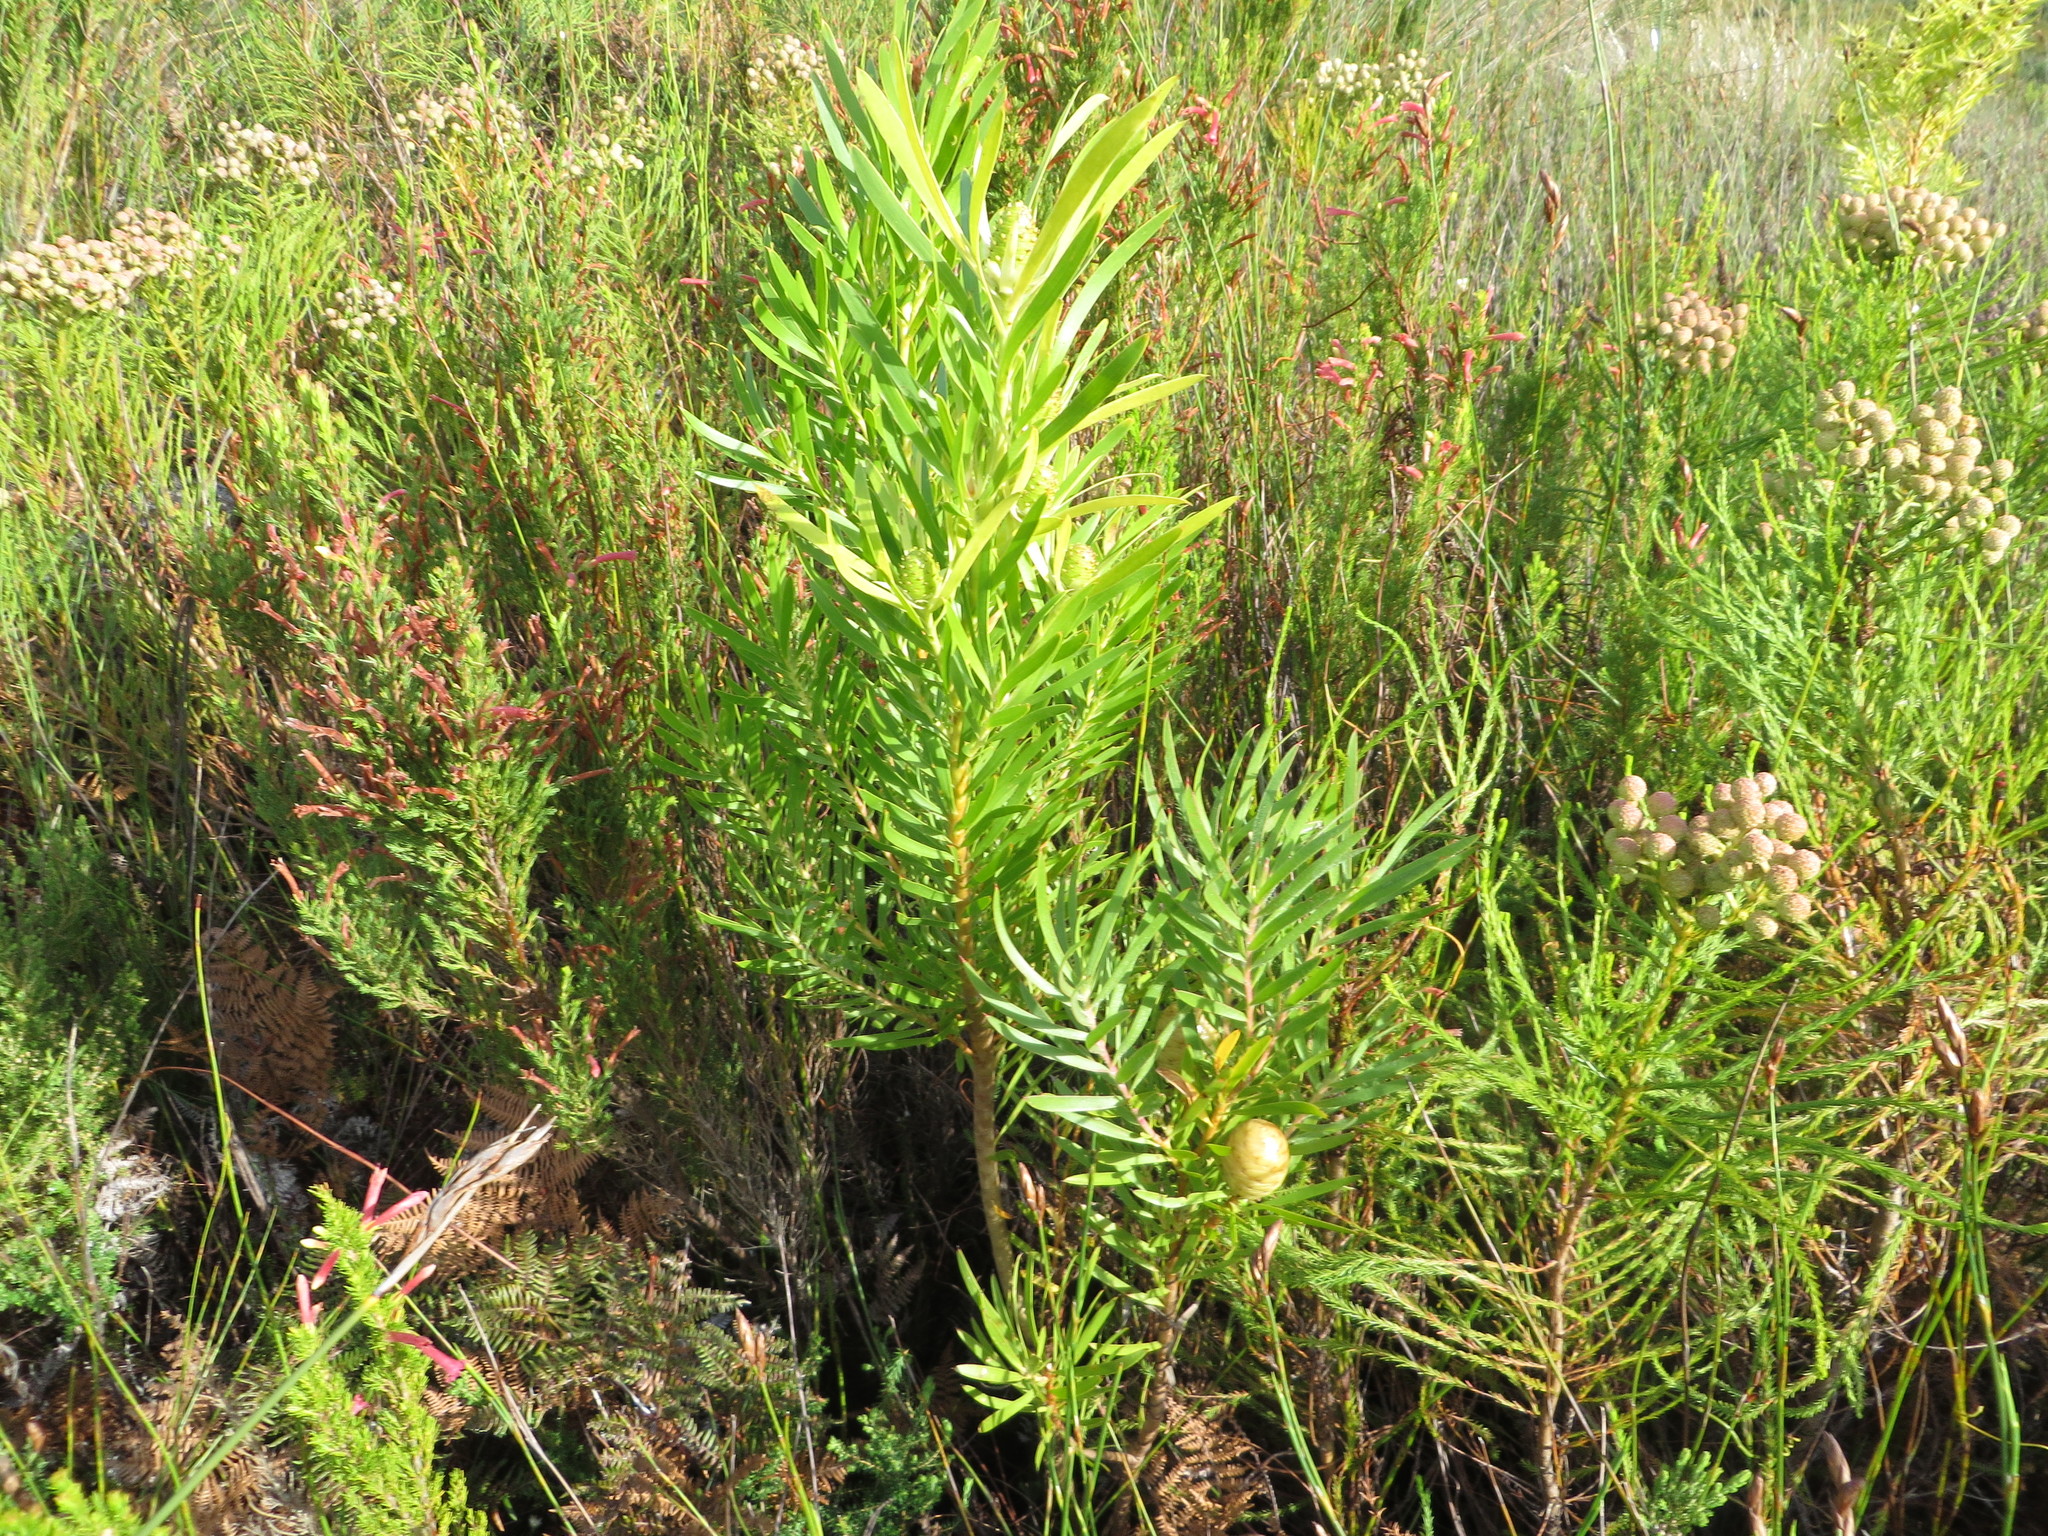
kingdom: Plantae
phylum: Tracheophyta
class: Magnoliopsida
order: Proteales
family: Proteaceae
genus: Leucadendron
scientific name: Leucadendron salicifolium
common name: Common stream conebush
